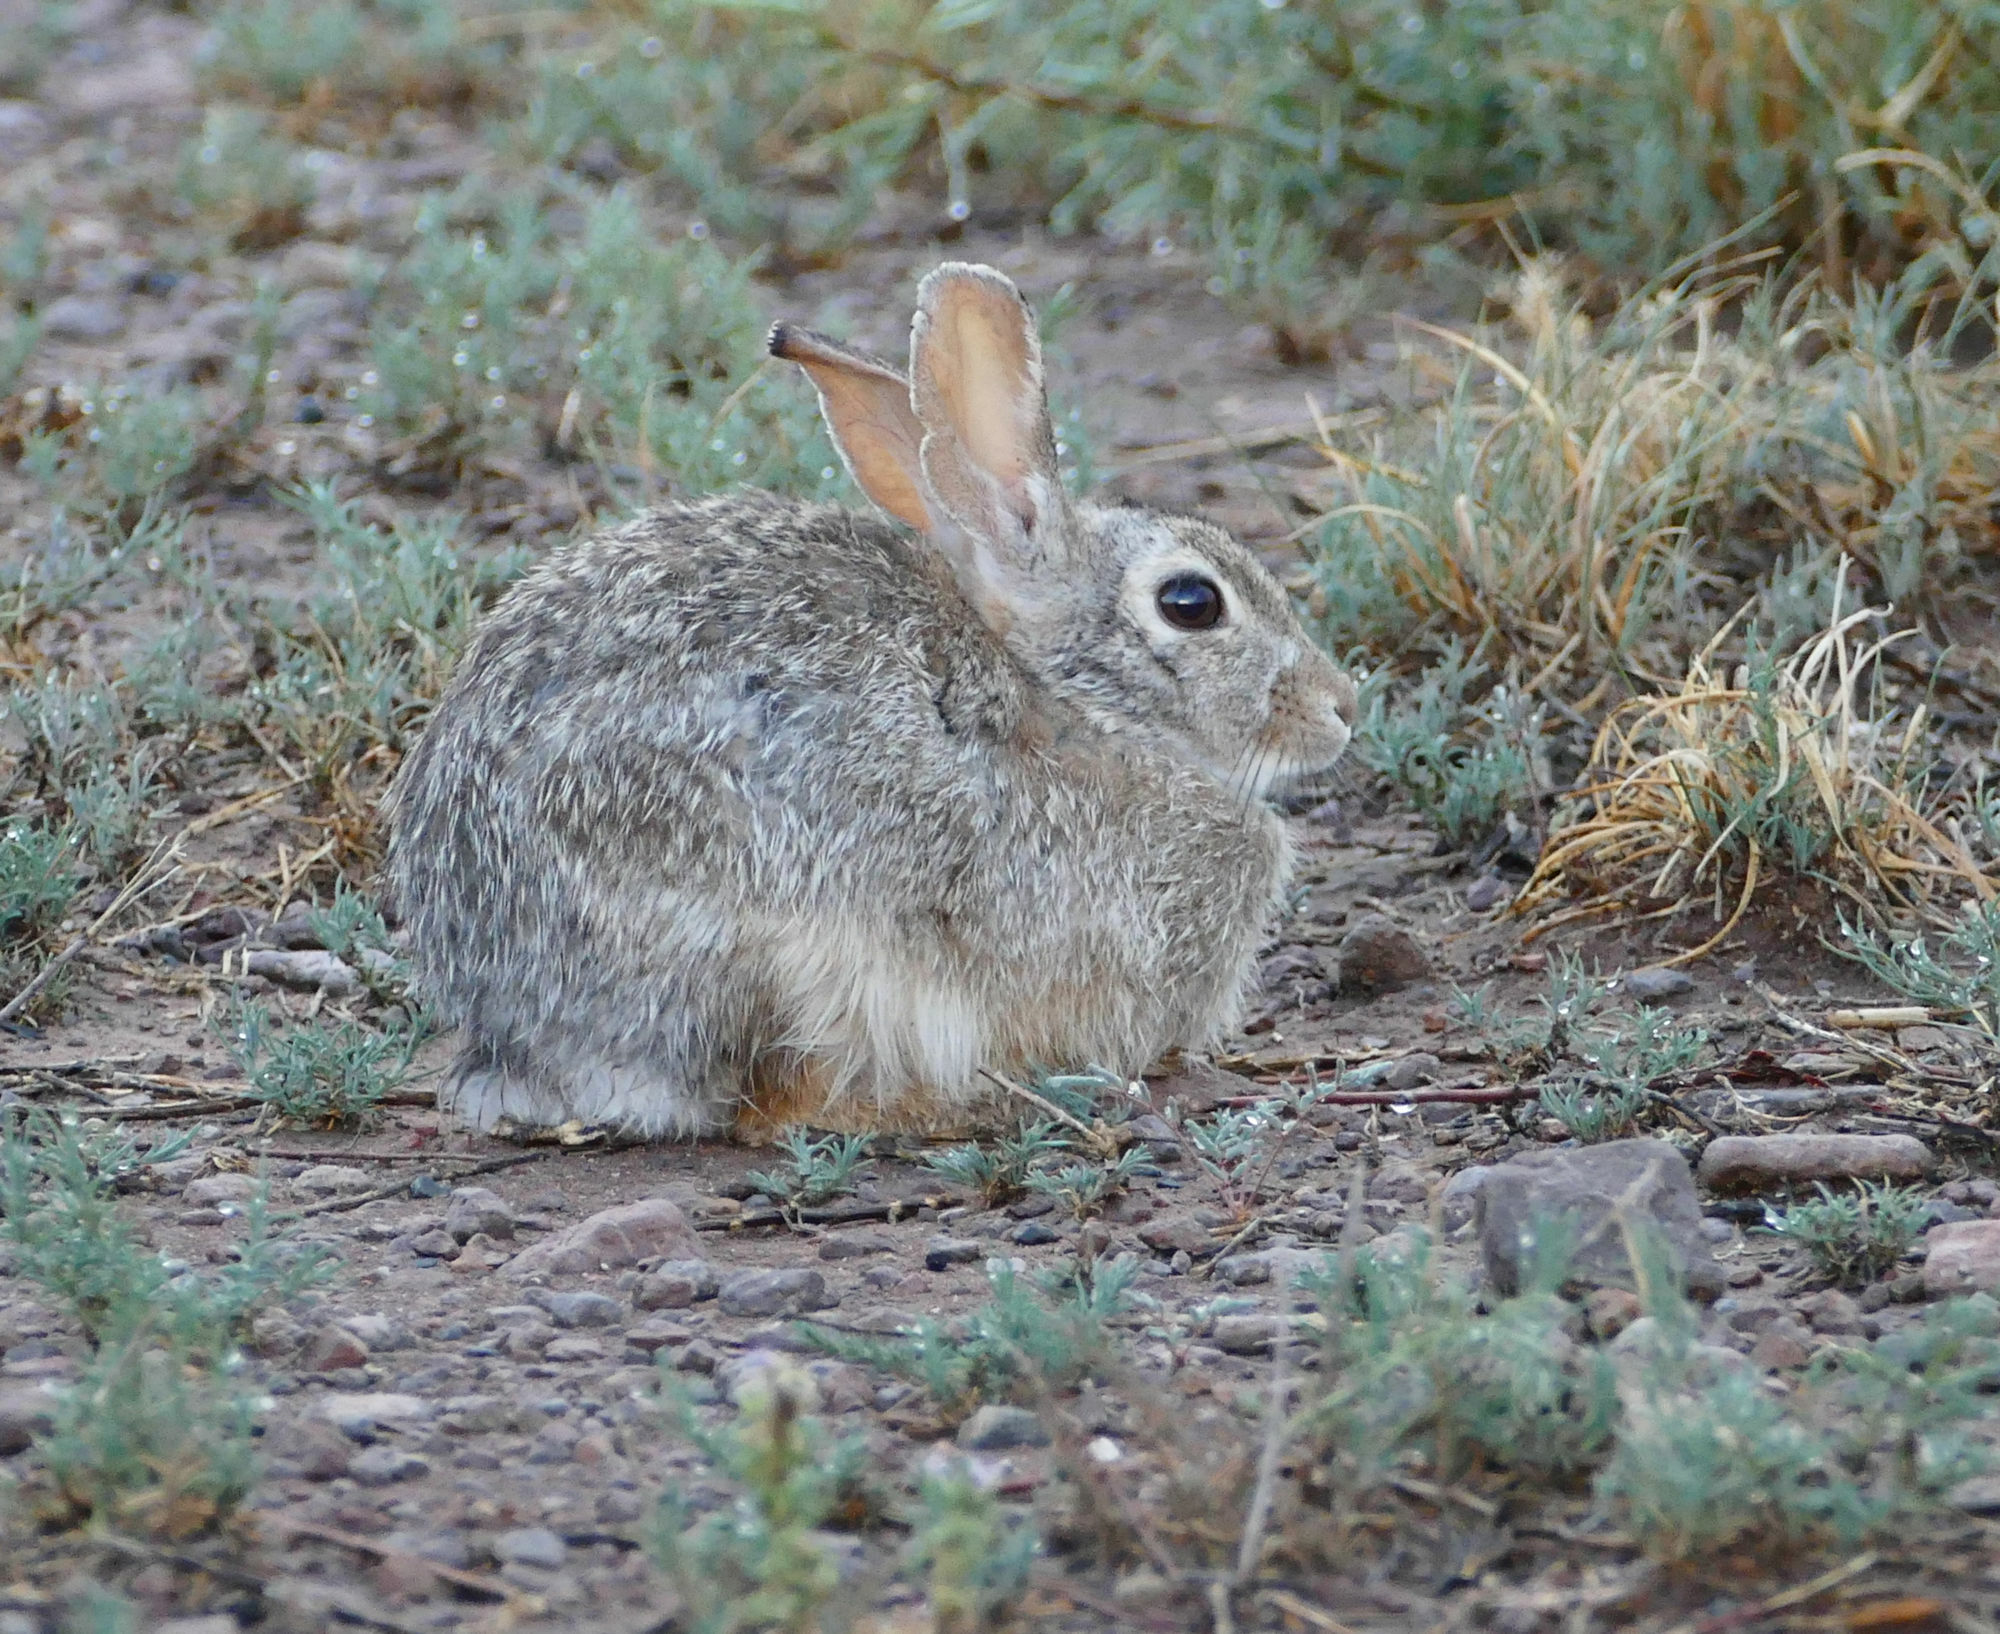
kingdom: Animalia
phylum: Chordata
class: Mammalia
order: Lagomorpha
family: Leporidae
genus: Sylvilagus
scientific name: Sylvilagus audubonii
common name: Desert cottontail
